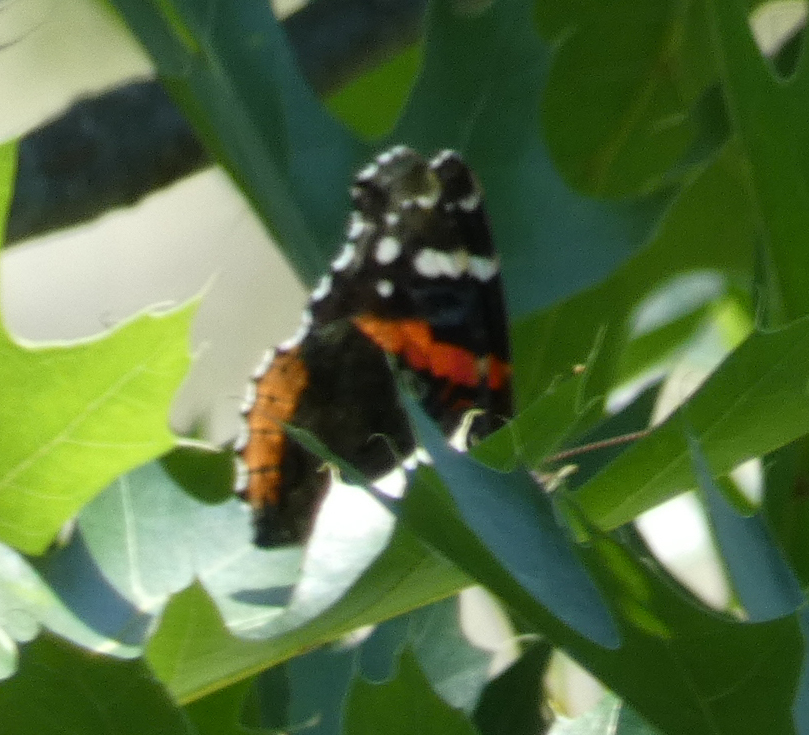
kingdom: Animalia
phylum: Arthropoda
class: Insecta
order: Lepidoptera
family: Nymphalidae
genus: Vanessa
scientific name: Vanessa atalanta
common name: Red admiral
